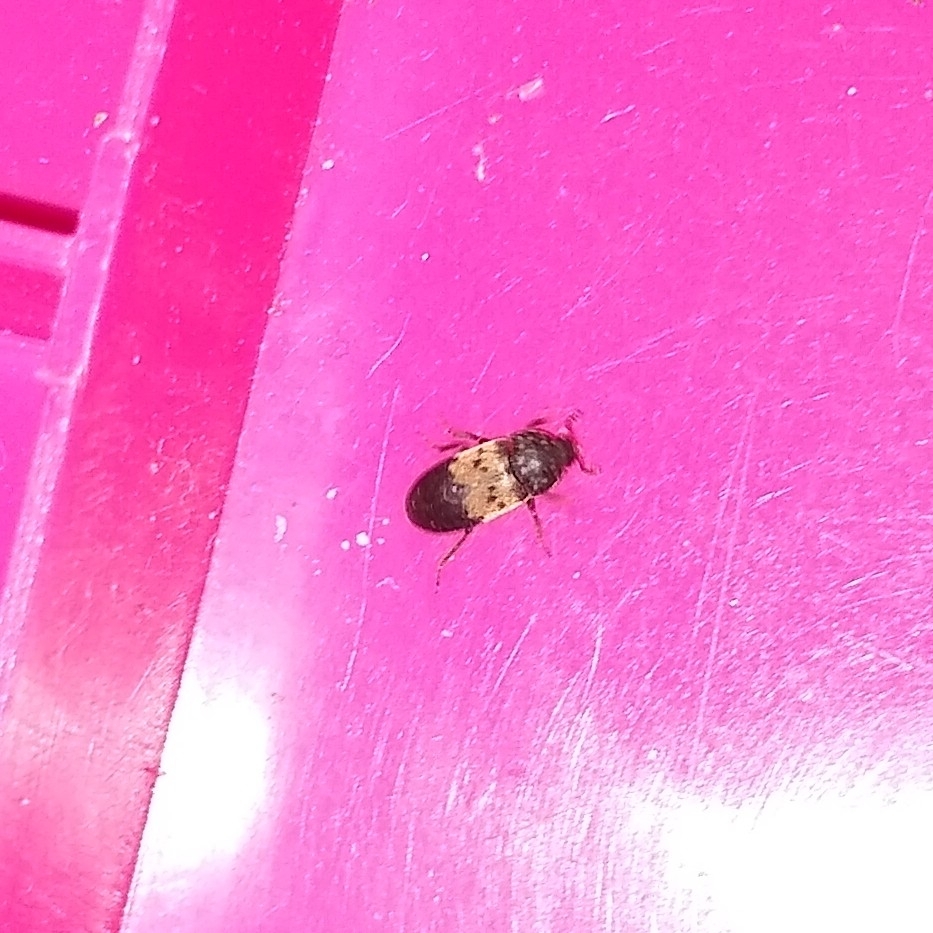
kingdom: Animalia
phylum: Arthropoda
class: Insecta
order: Coleoptera
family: Dermestidae
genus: Dermestes
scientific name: Dermestes lardarius
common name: Larder beetle
